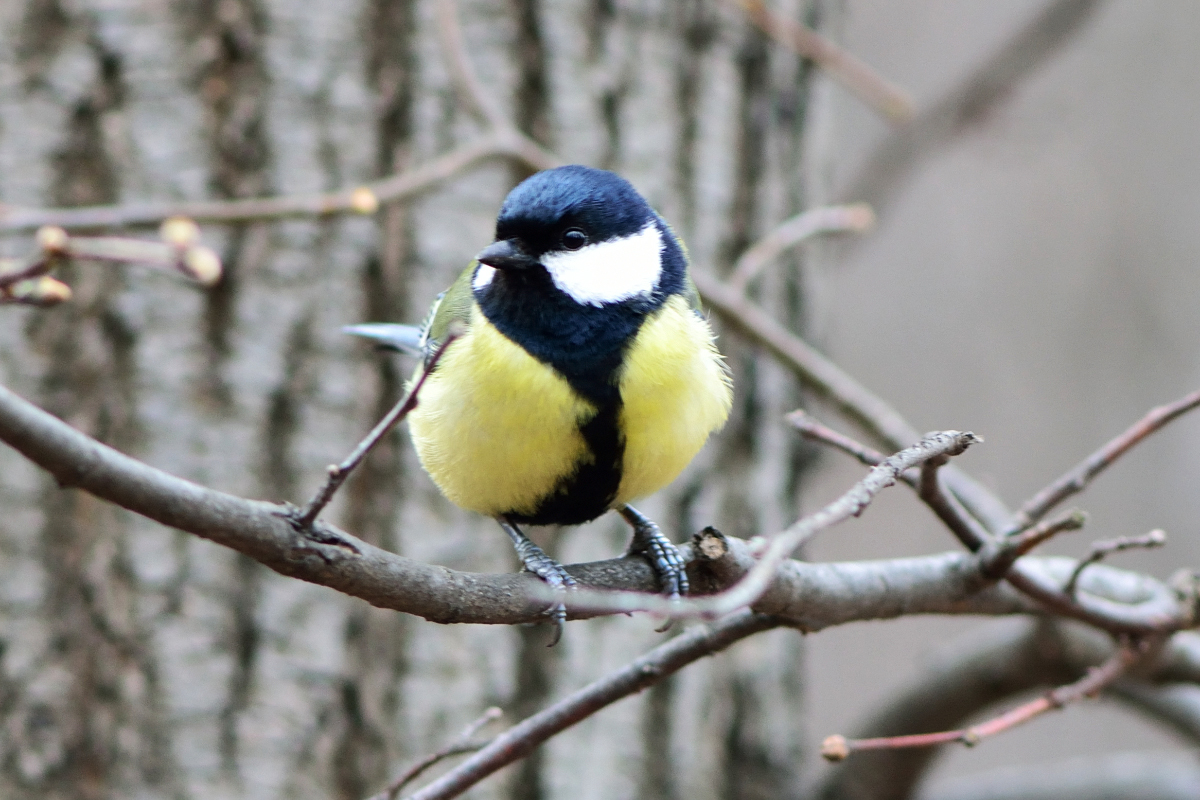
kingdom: Animalia
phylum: Chordata
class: Aves
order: Passeriformes
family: Paridae
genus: Parus
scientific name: Parus major
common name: Great tit
